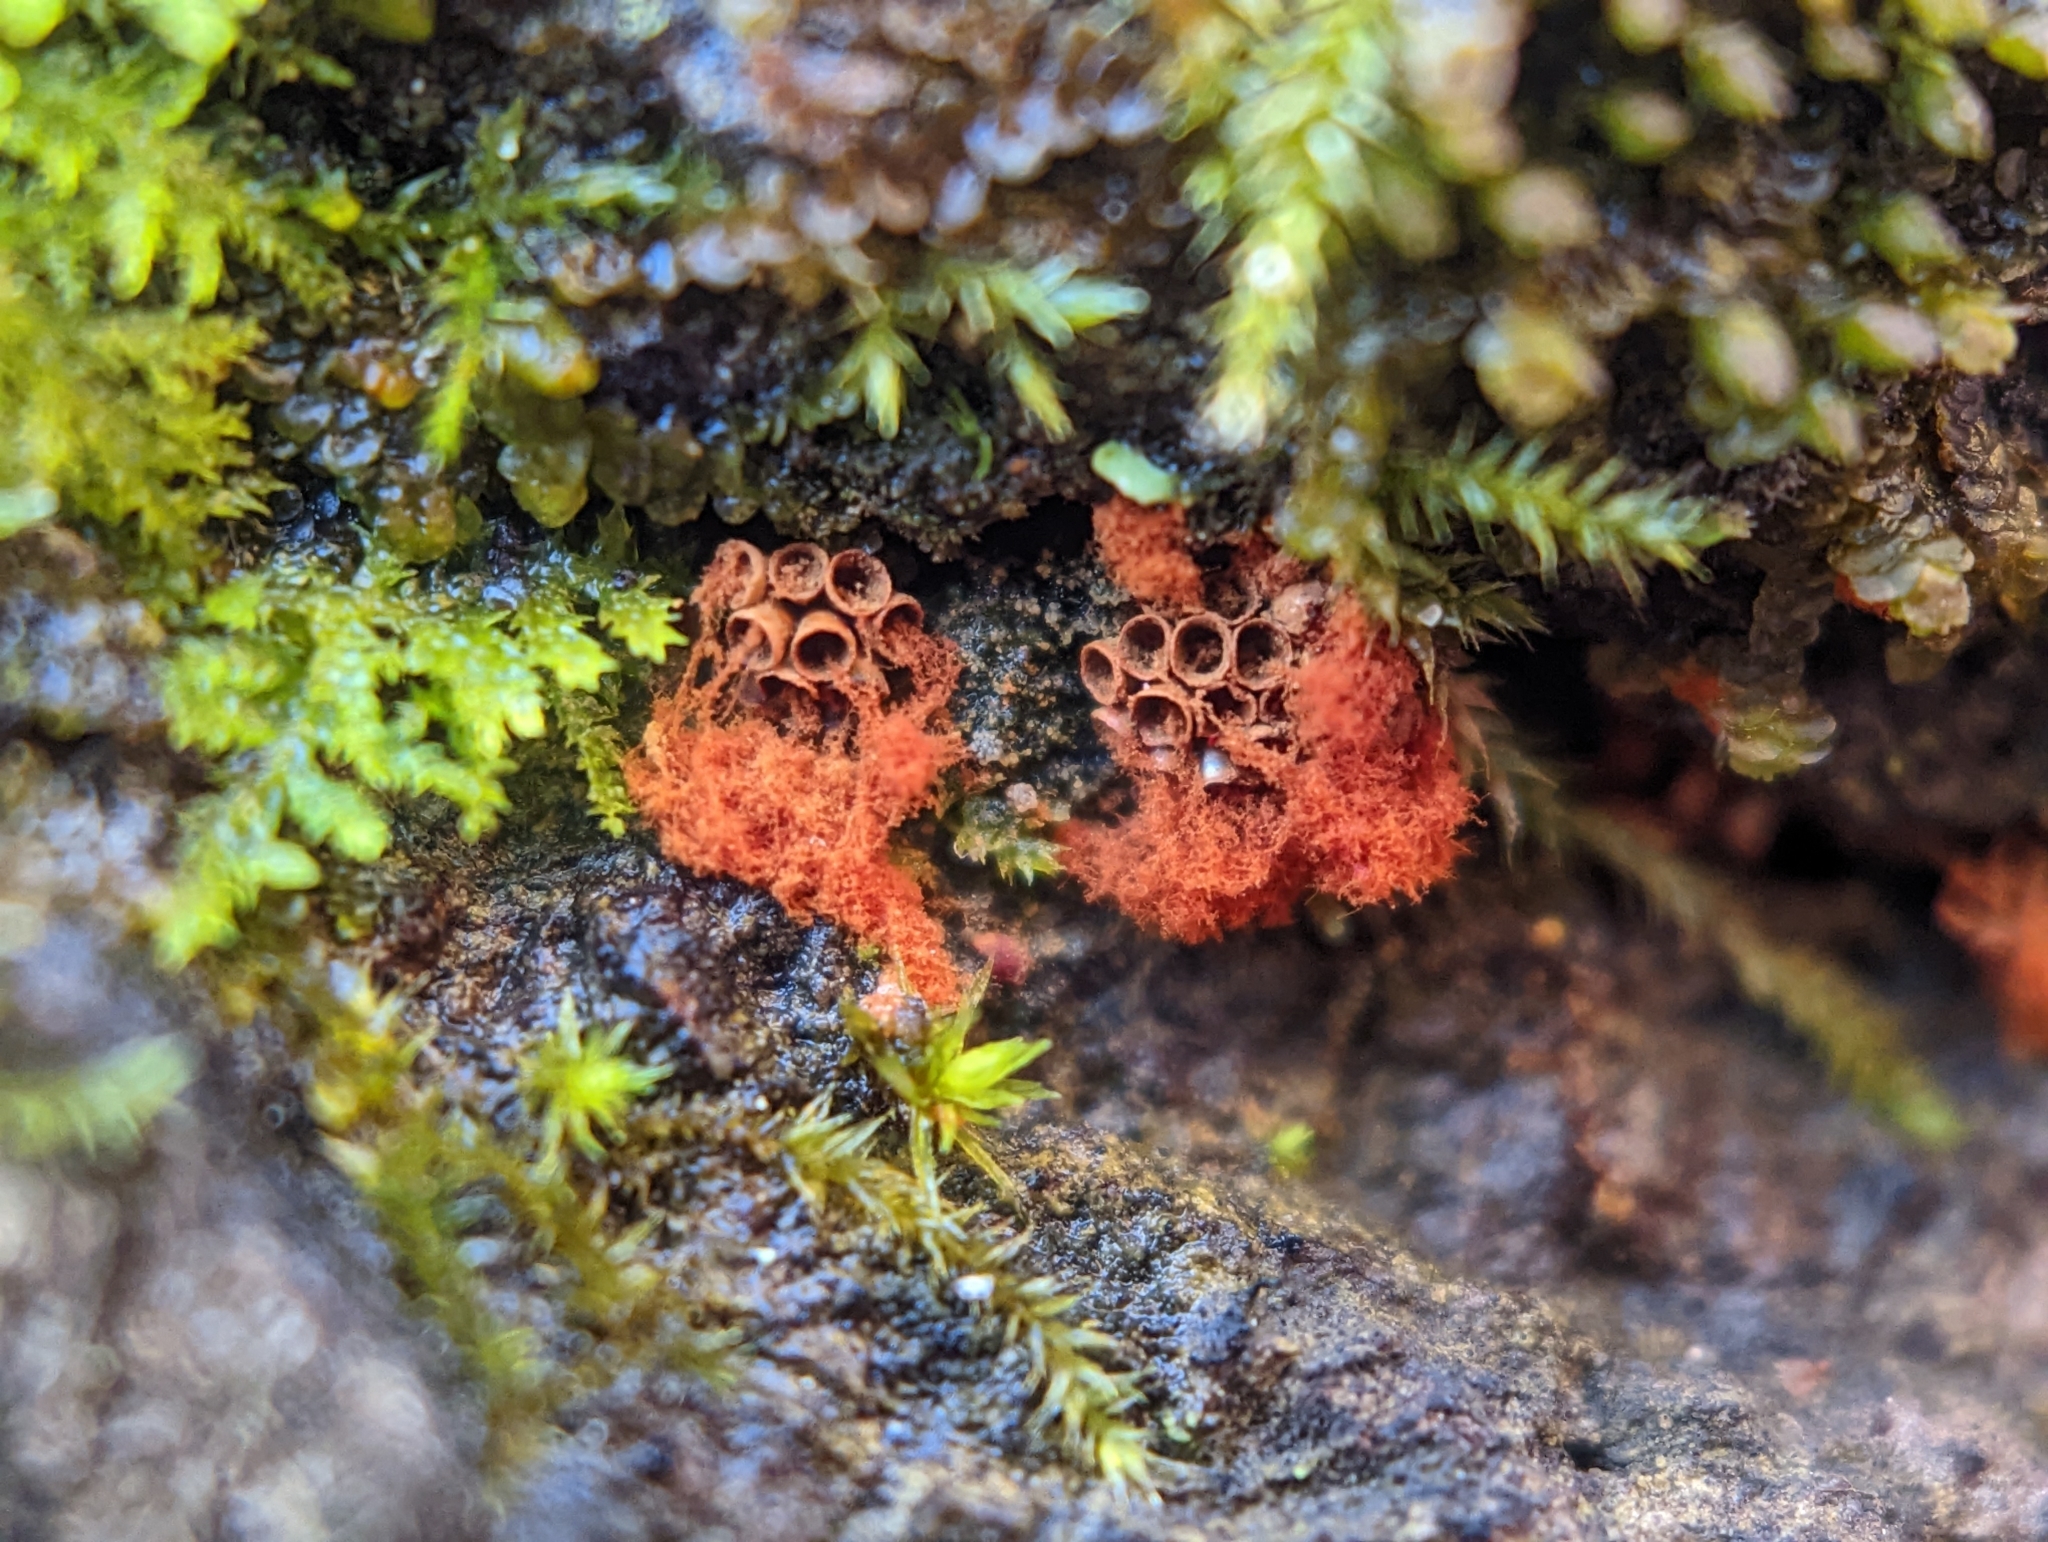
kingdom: Protozoa
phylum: Mycetozoa
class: Myxomycetes
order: Trichiales
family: Trichiaceae
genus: Metatrichia
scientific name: Metatrichia vesparia
